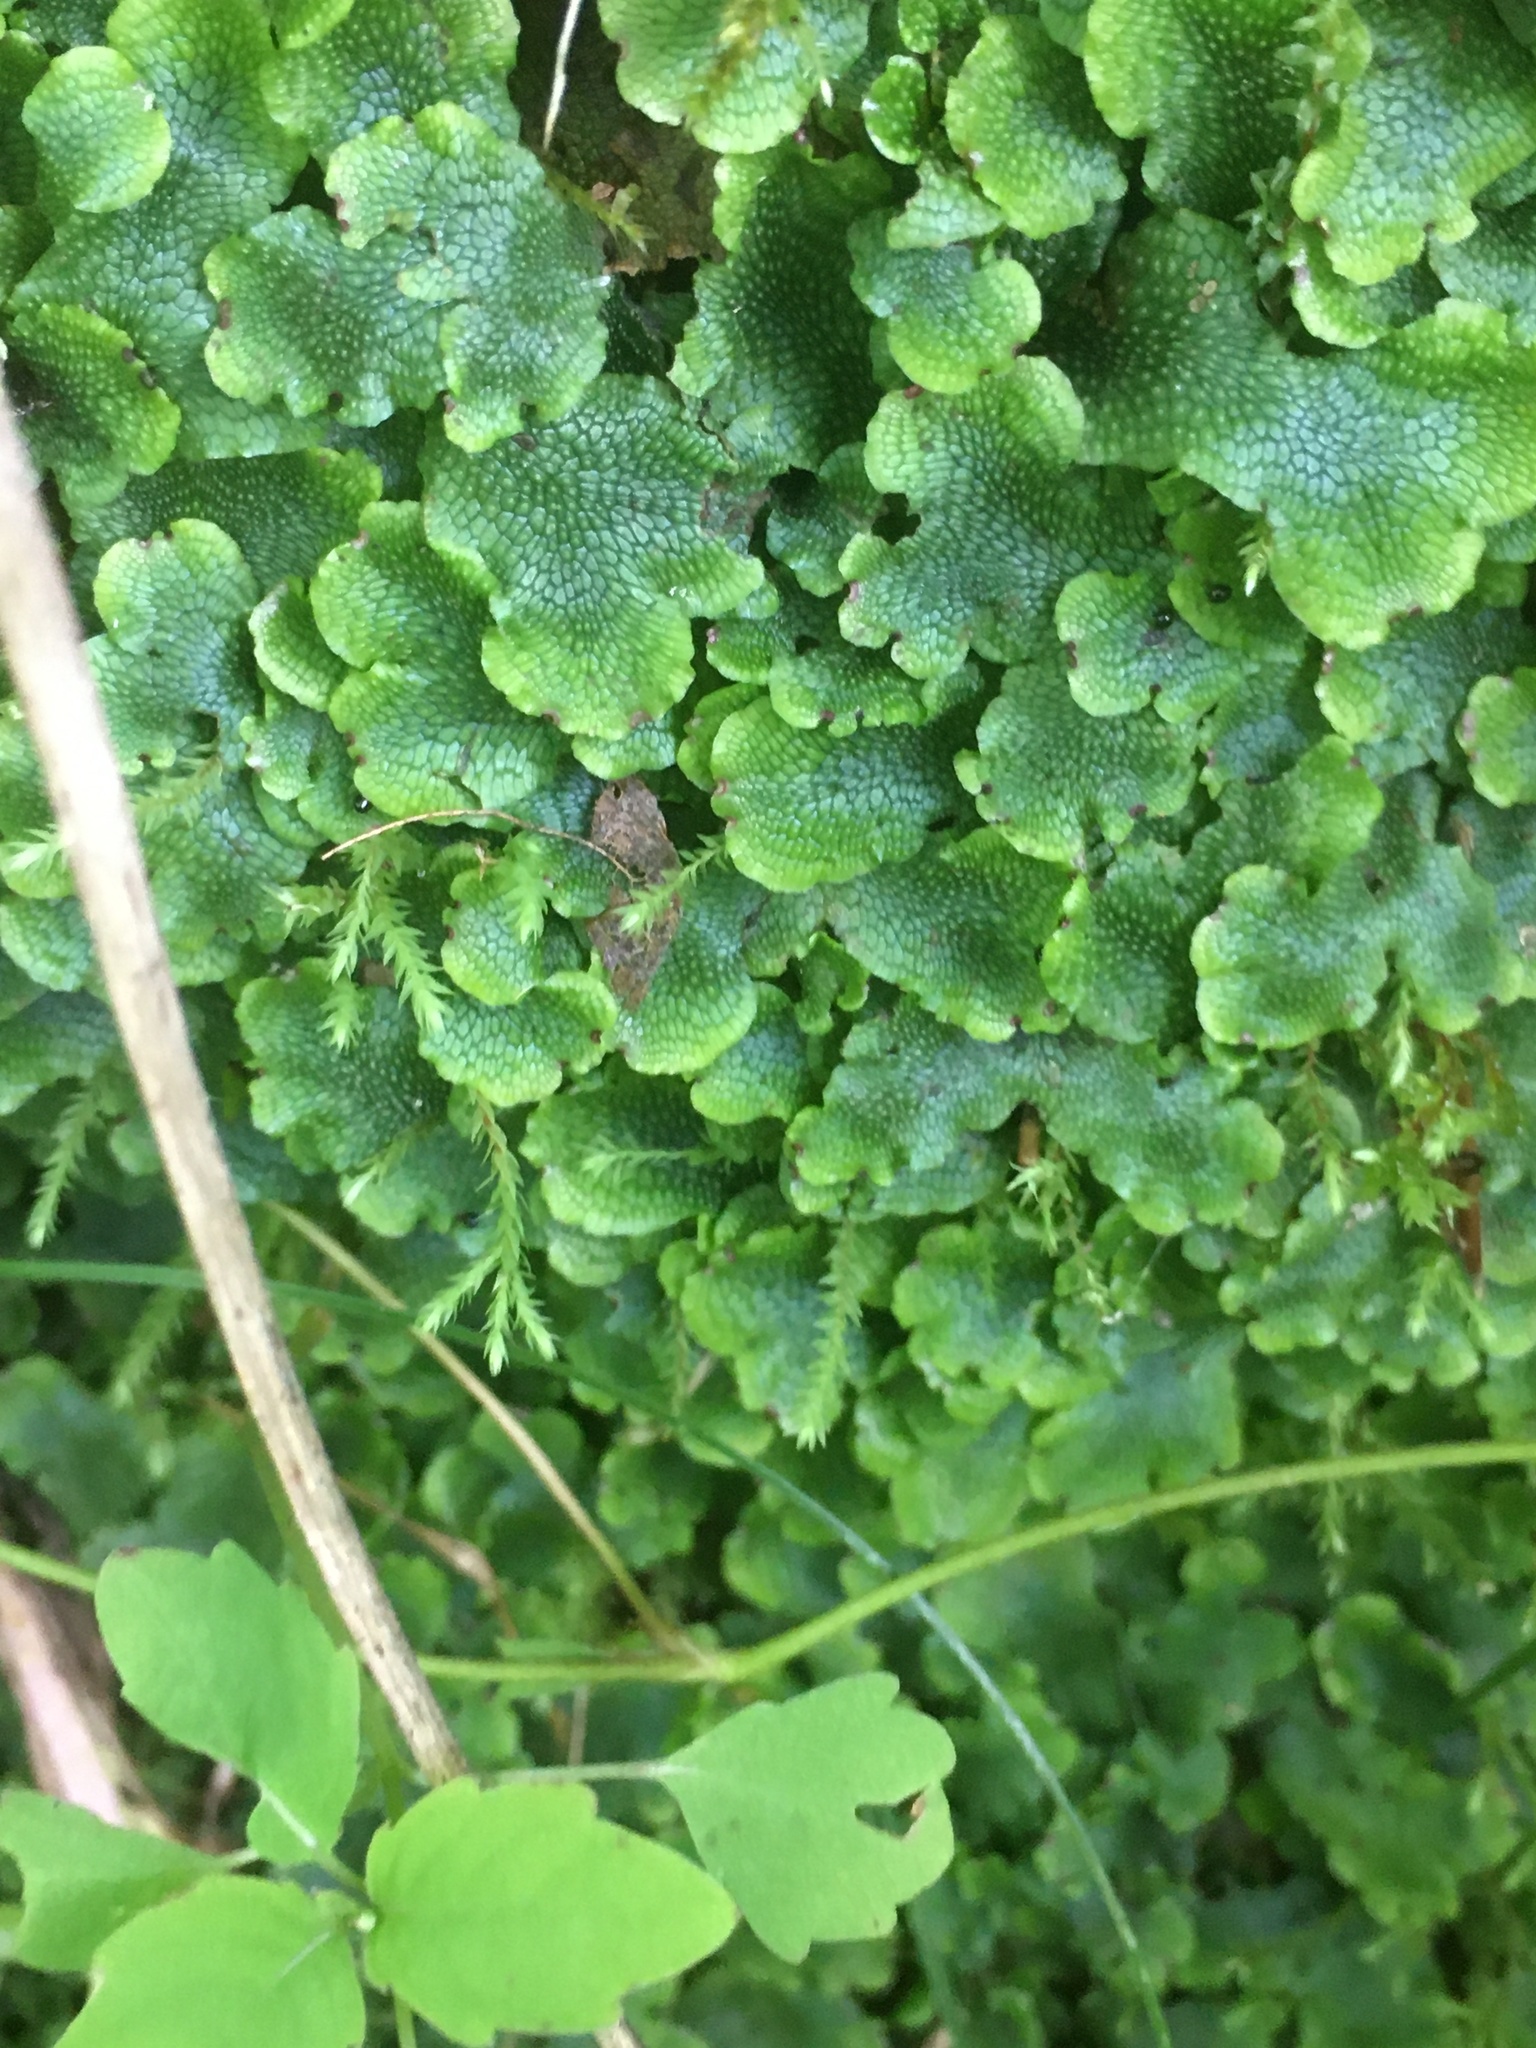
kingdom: Plantae
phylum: Marchantiophyta
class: Marchantiopsida
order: Marchantiales
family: Conocephalaceae
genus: Conocephalum
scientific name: Conocephalum salebrosum
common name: Cat-tongue liverwort
